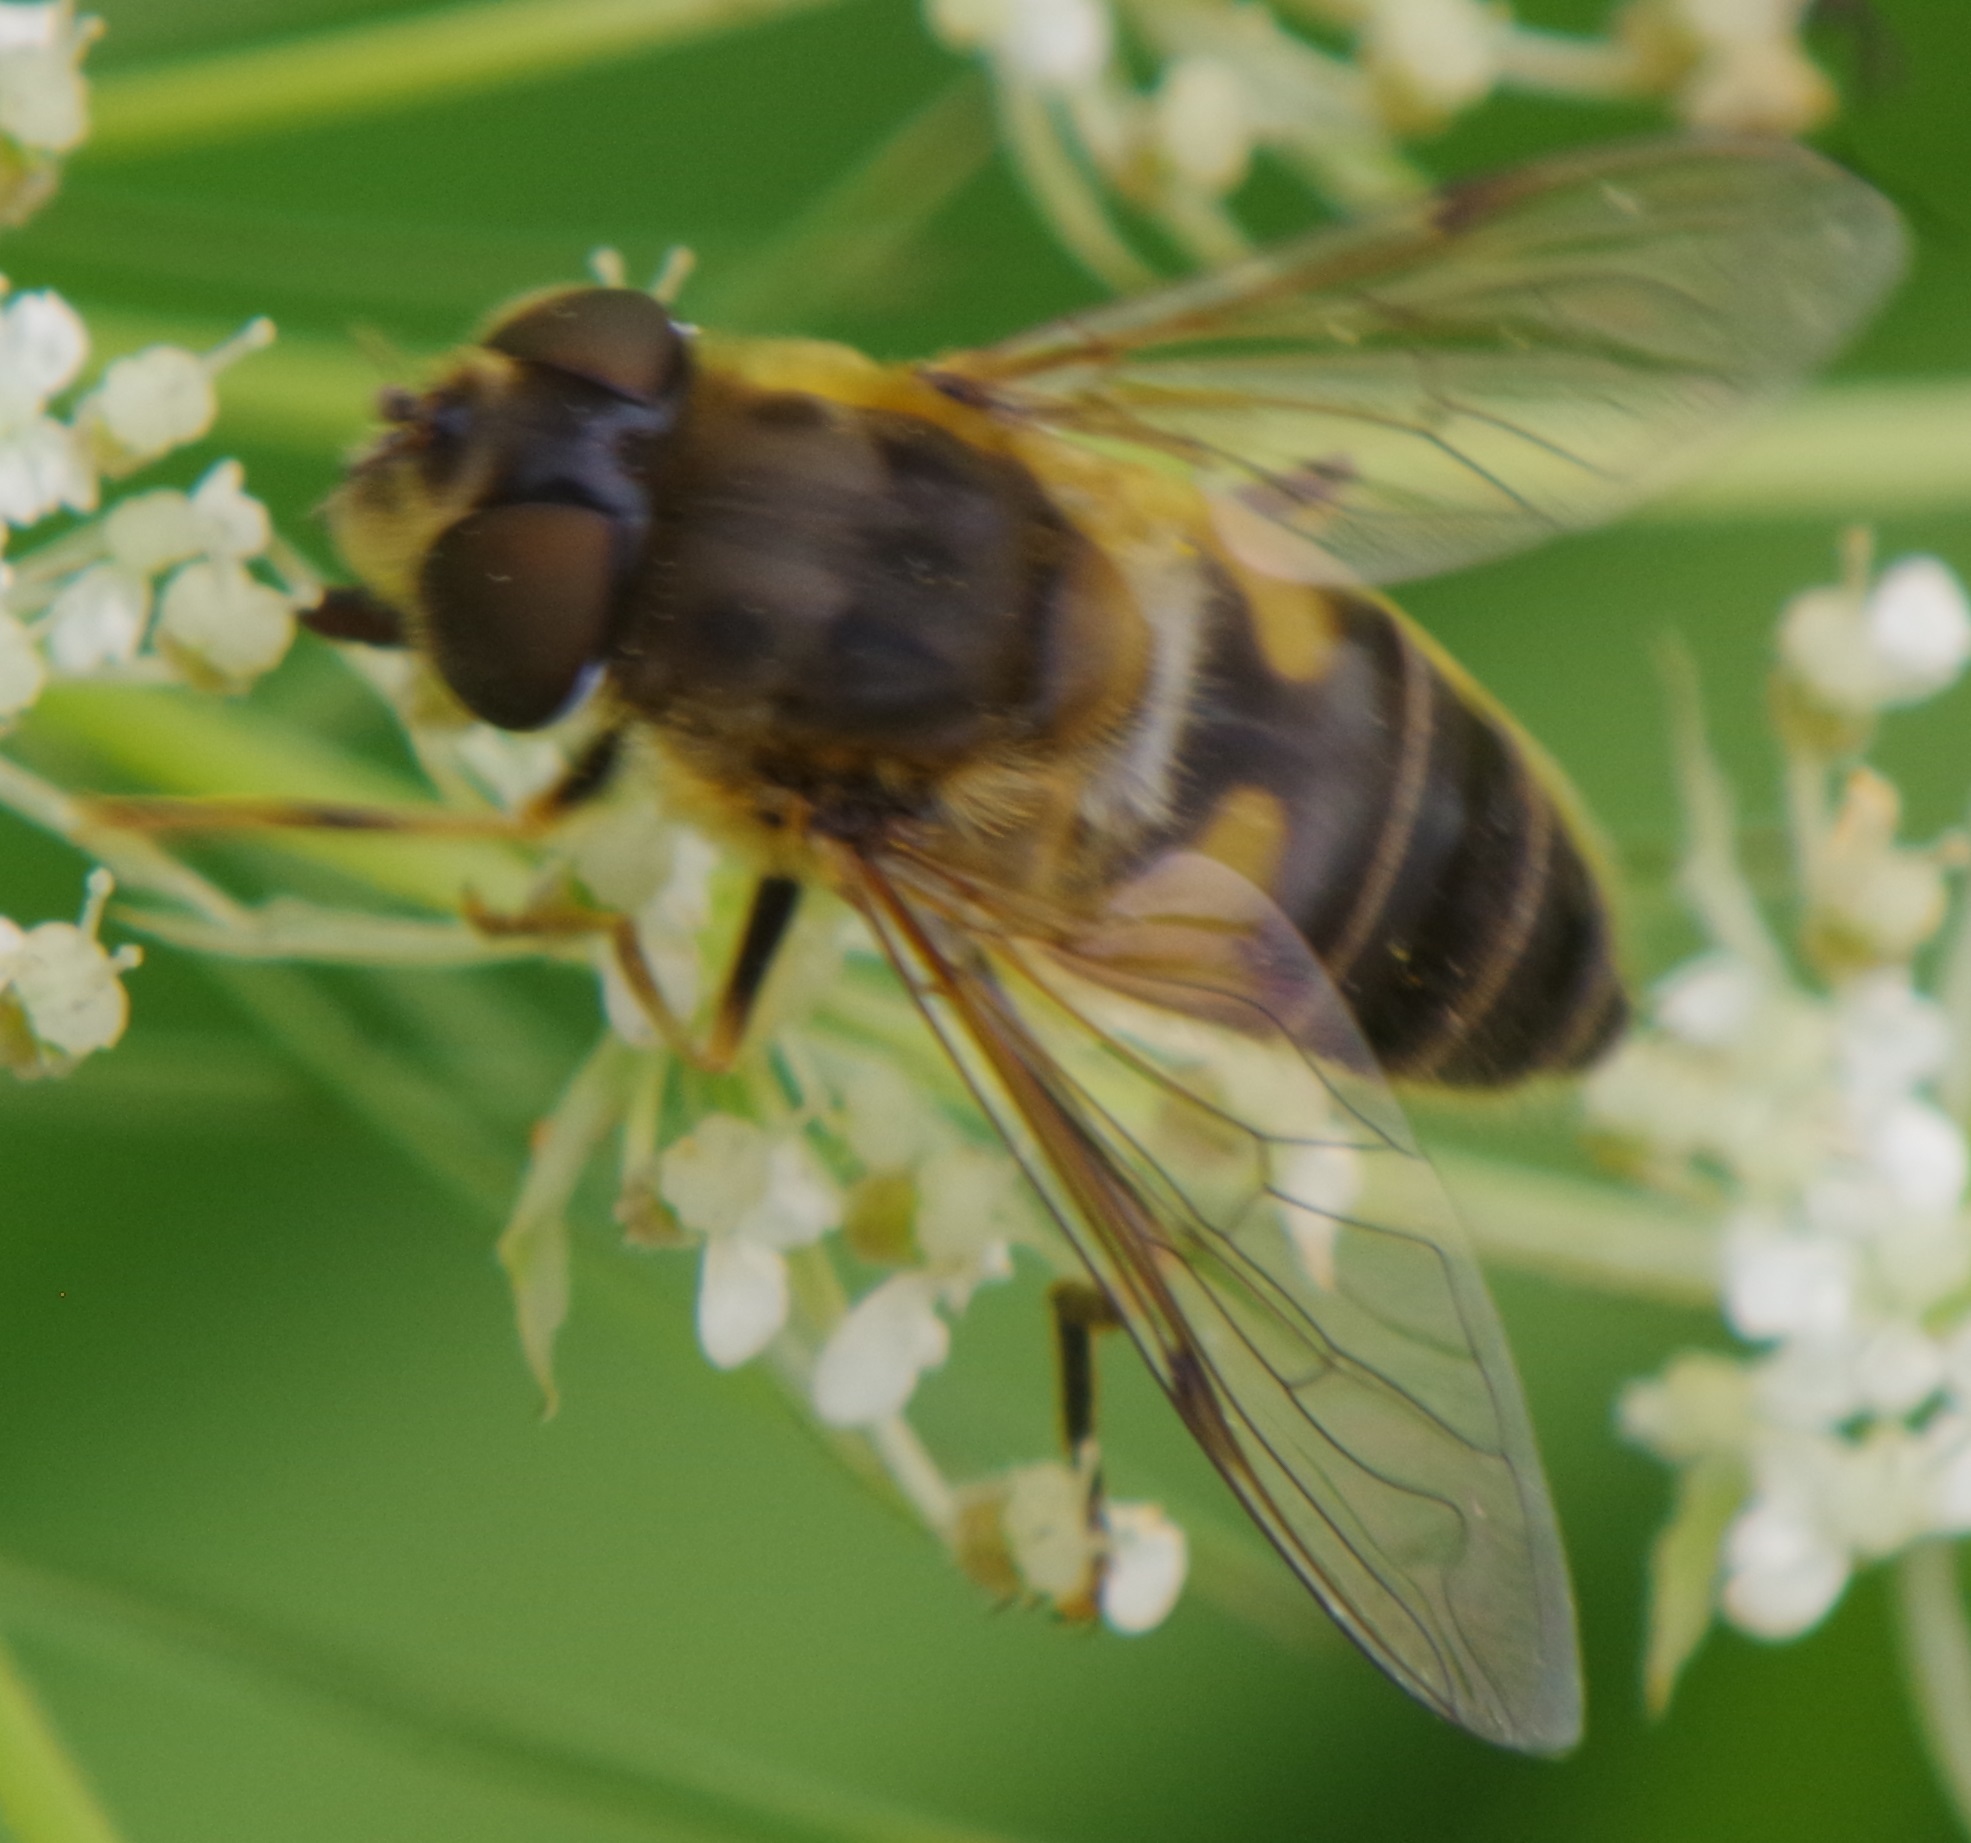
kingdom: Animalia
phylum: Arthropoda
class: Insecta
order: Diptera
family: Syrphidae
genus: Eristalis
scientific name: Eristalis pertinax
